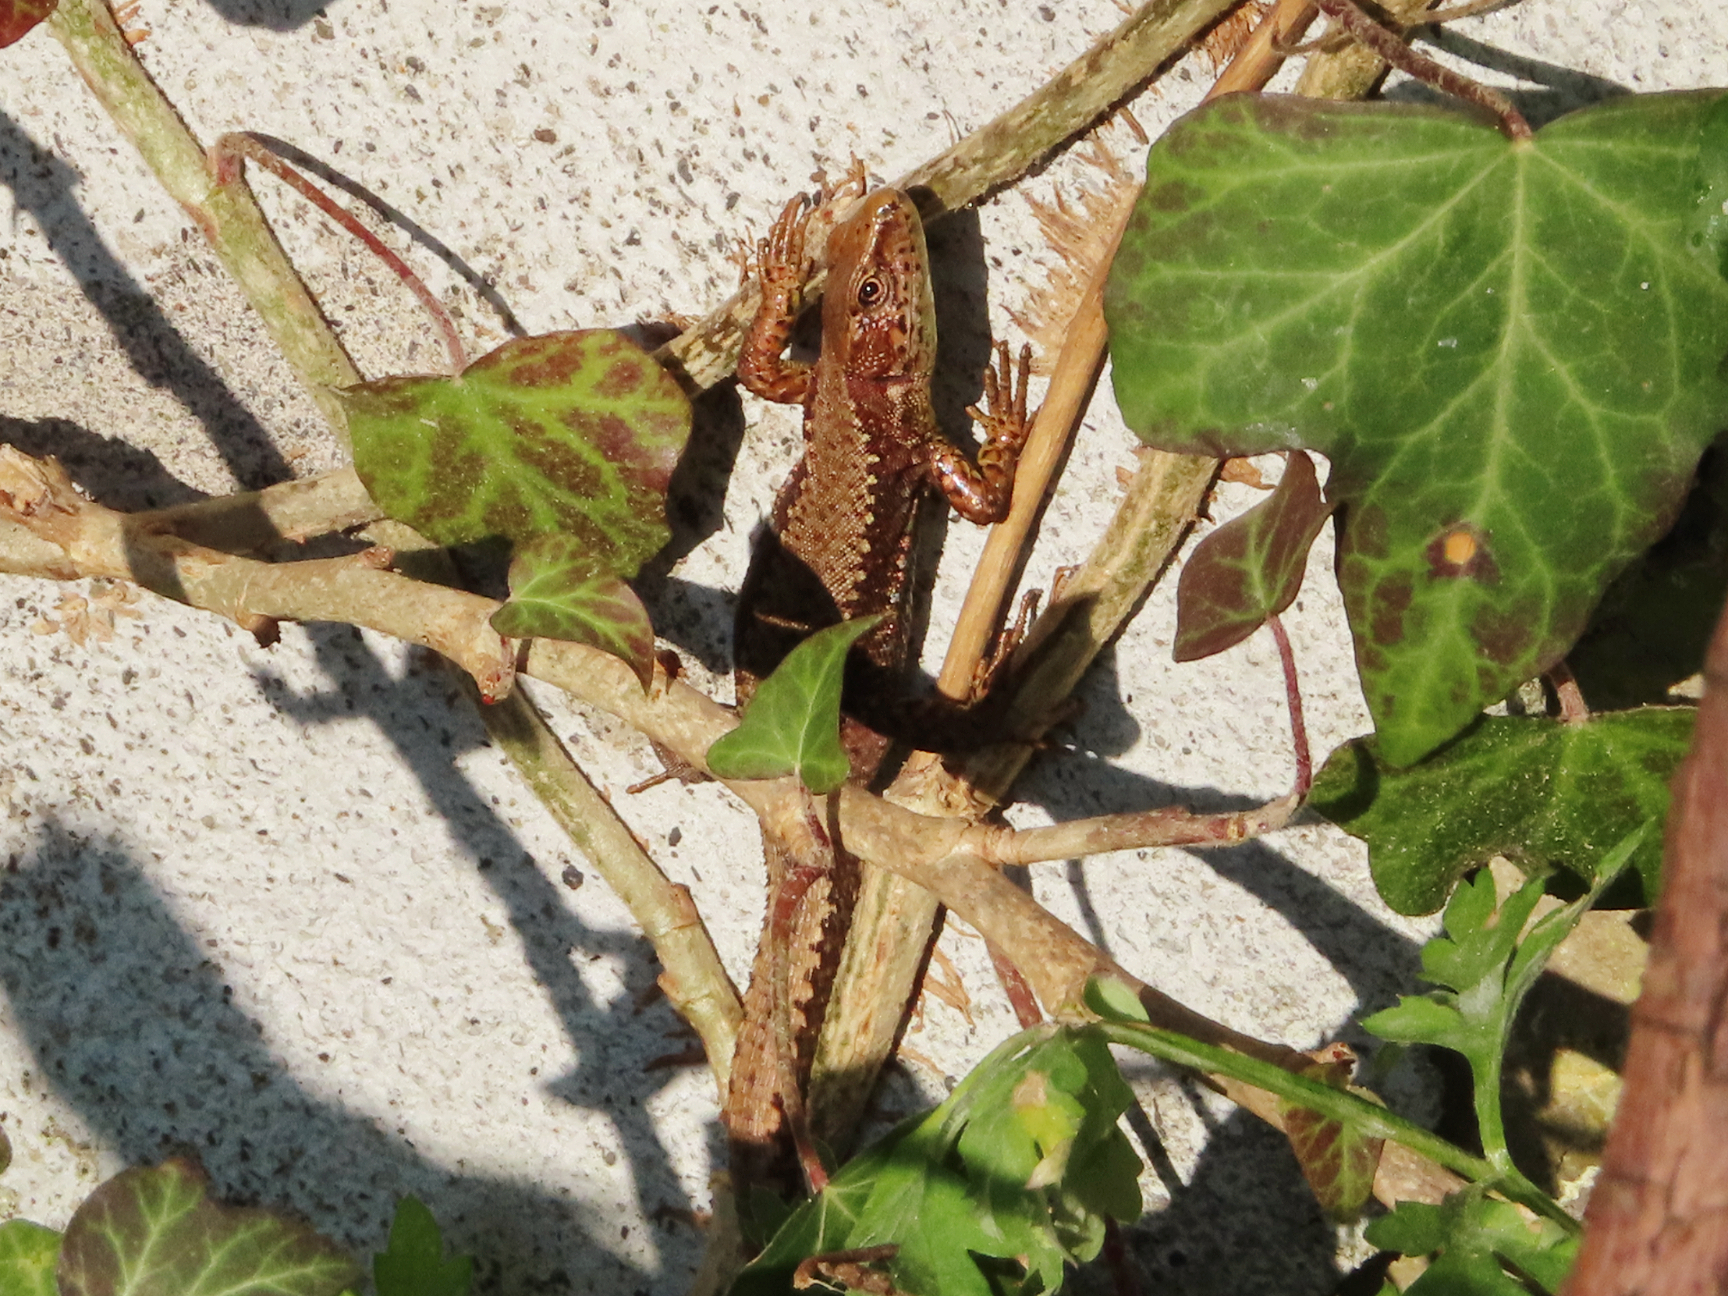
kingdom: Animalia
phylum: Chordata
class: Squamata
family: Lacertidae
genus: Darevskia
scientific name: Darevskia derjugini
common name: Derjugin's lizard
